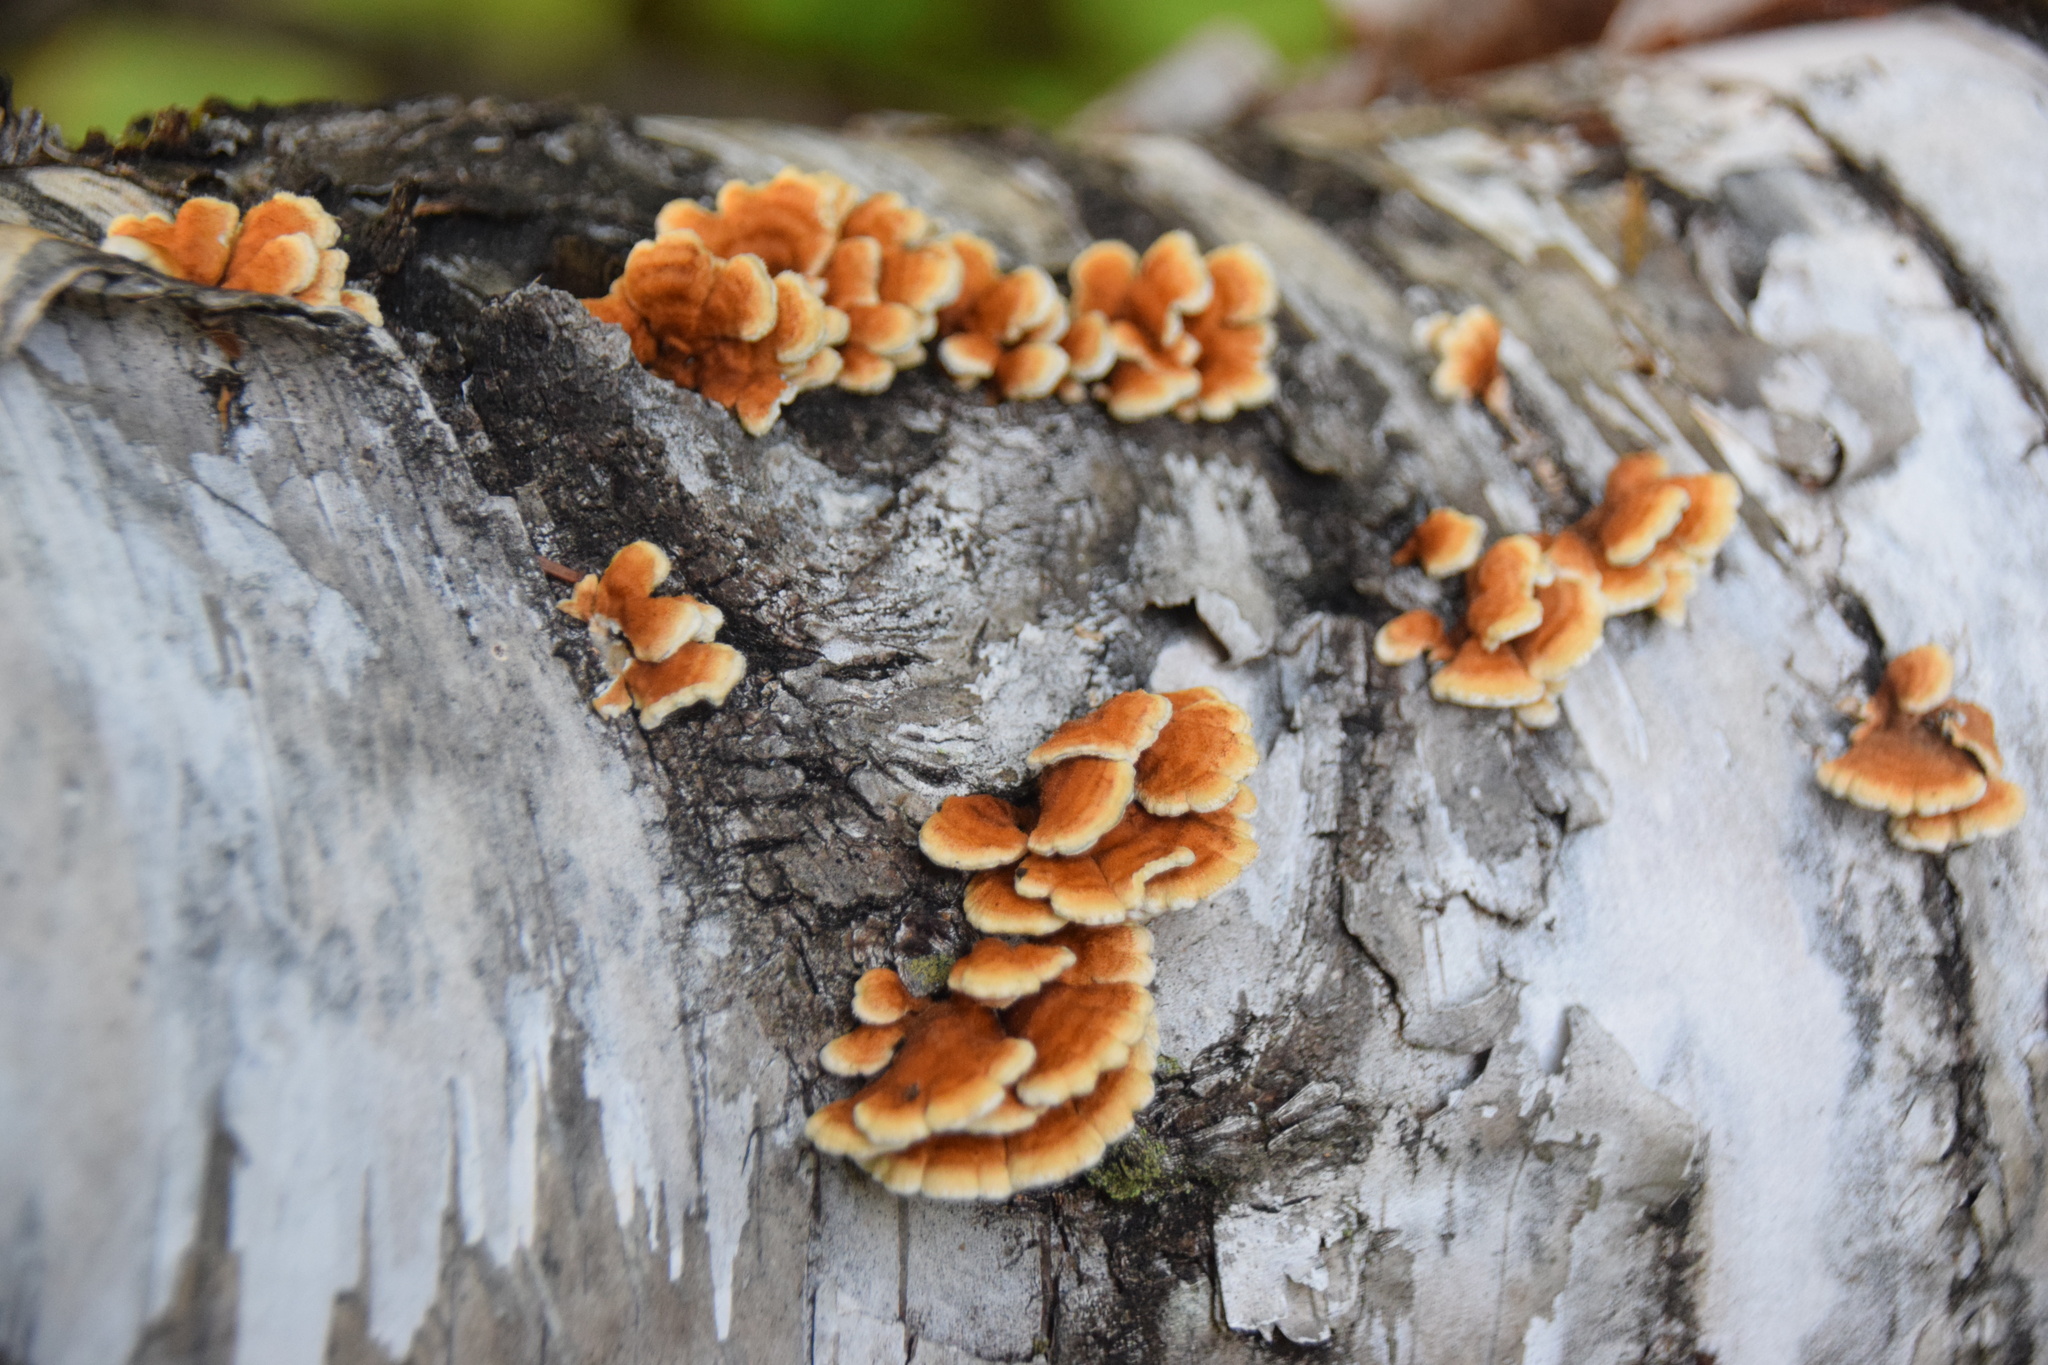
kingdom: Fungi
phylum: Basidiomycota
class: Agaricomycetes
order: Amylocorticiales
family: Amylocorticiaceae
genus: Plicaturopsis
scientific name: Plicaturopsis crispa
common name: Crimped gill
